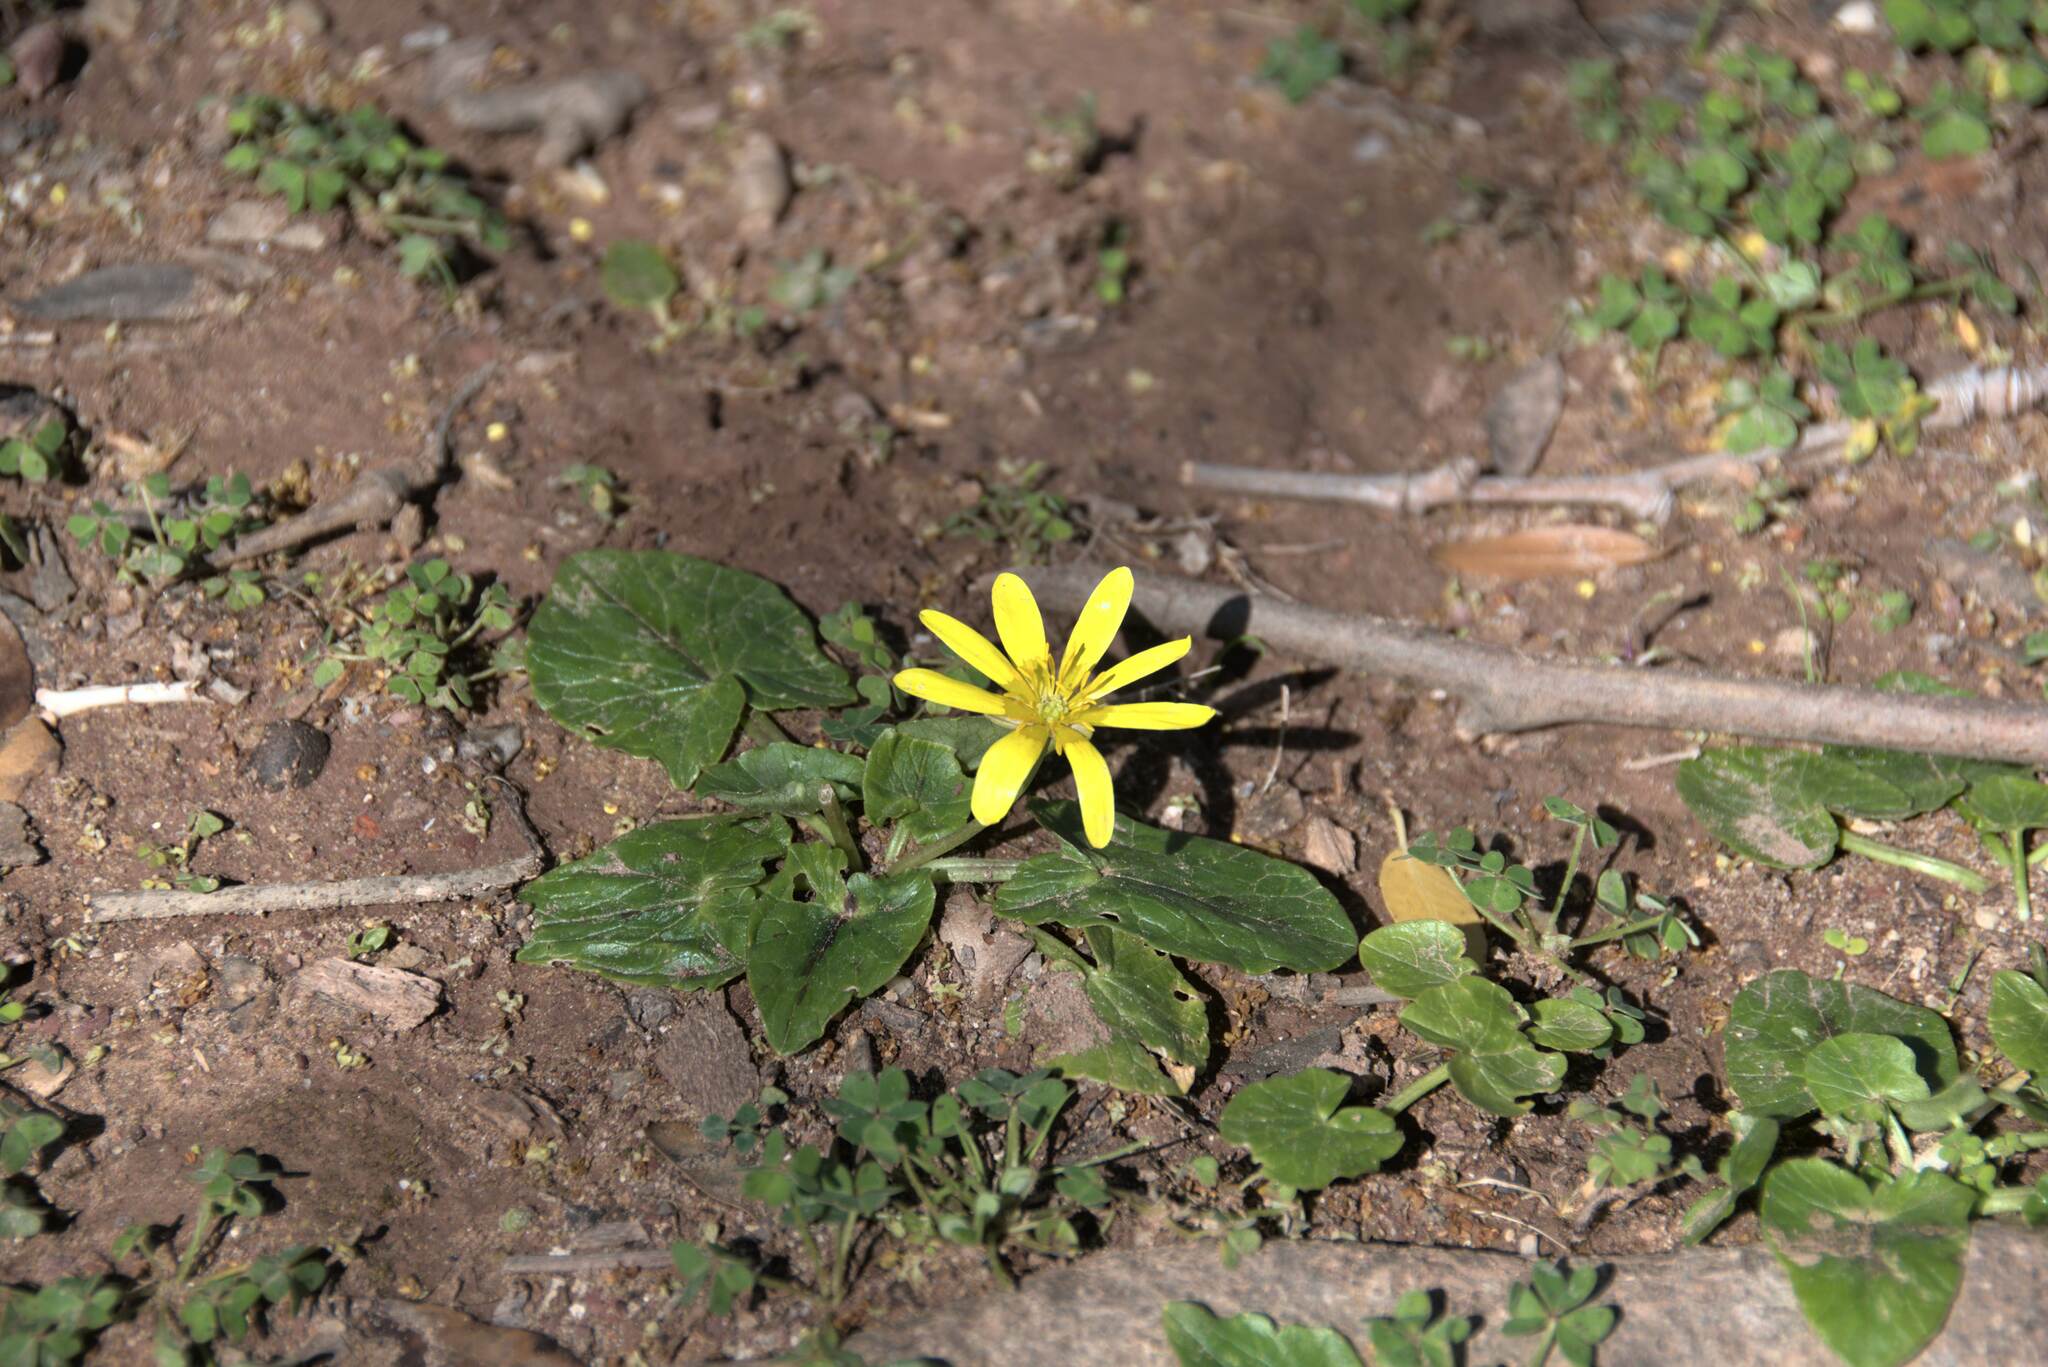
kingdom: Plantae
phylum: Tracheophyta
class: Magnoliopsida
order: Ranunculales
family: Ranunculaceae
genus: Ficaria
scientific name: Ficaria verna
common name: Lesser celandine
